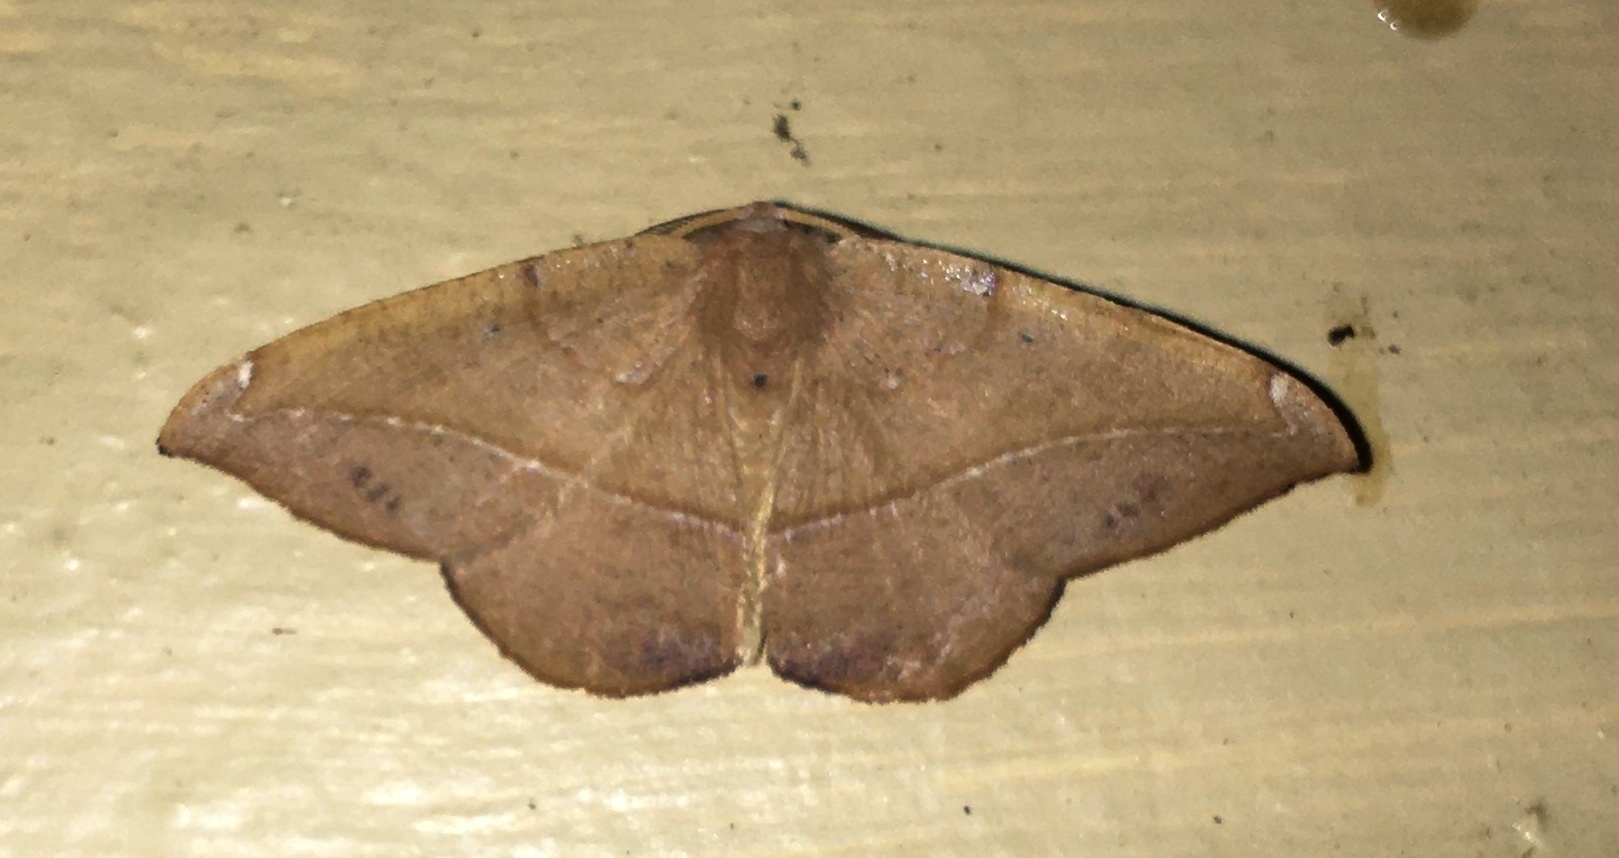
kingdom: Animalia
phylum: Arthropoda
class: Insecta
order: Lepidoptera
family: Geometridae
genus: Patalene
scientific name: Patalene olyzonaria
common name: Juniper geometer moth
